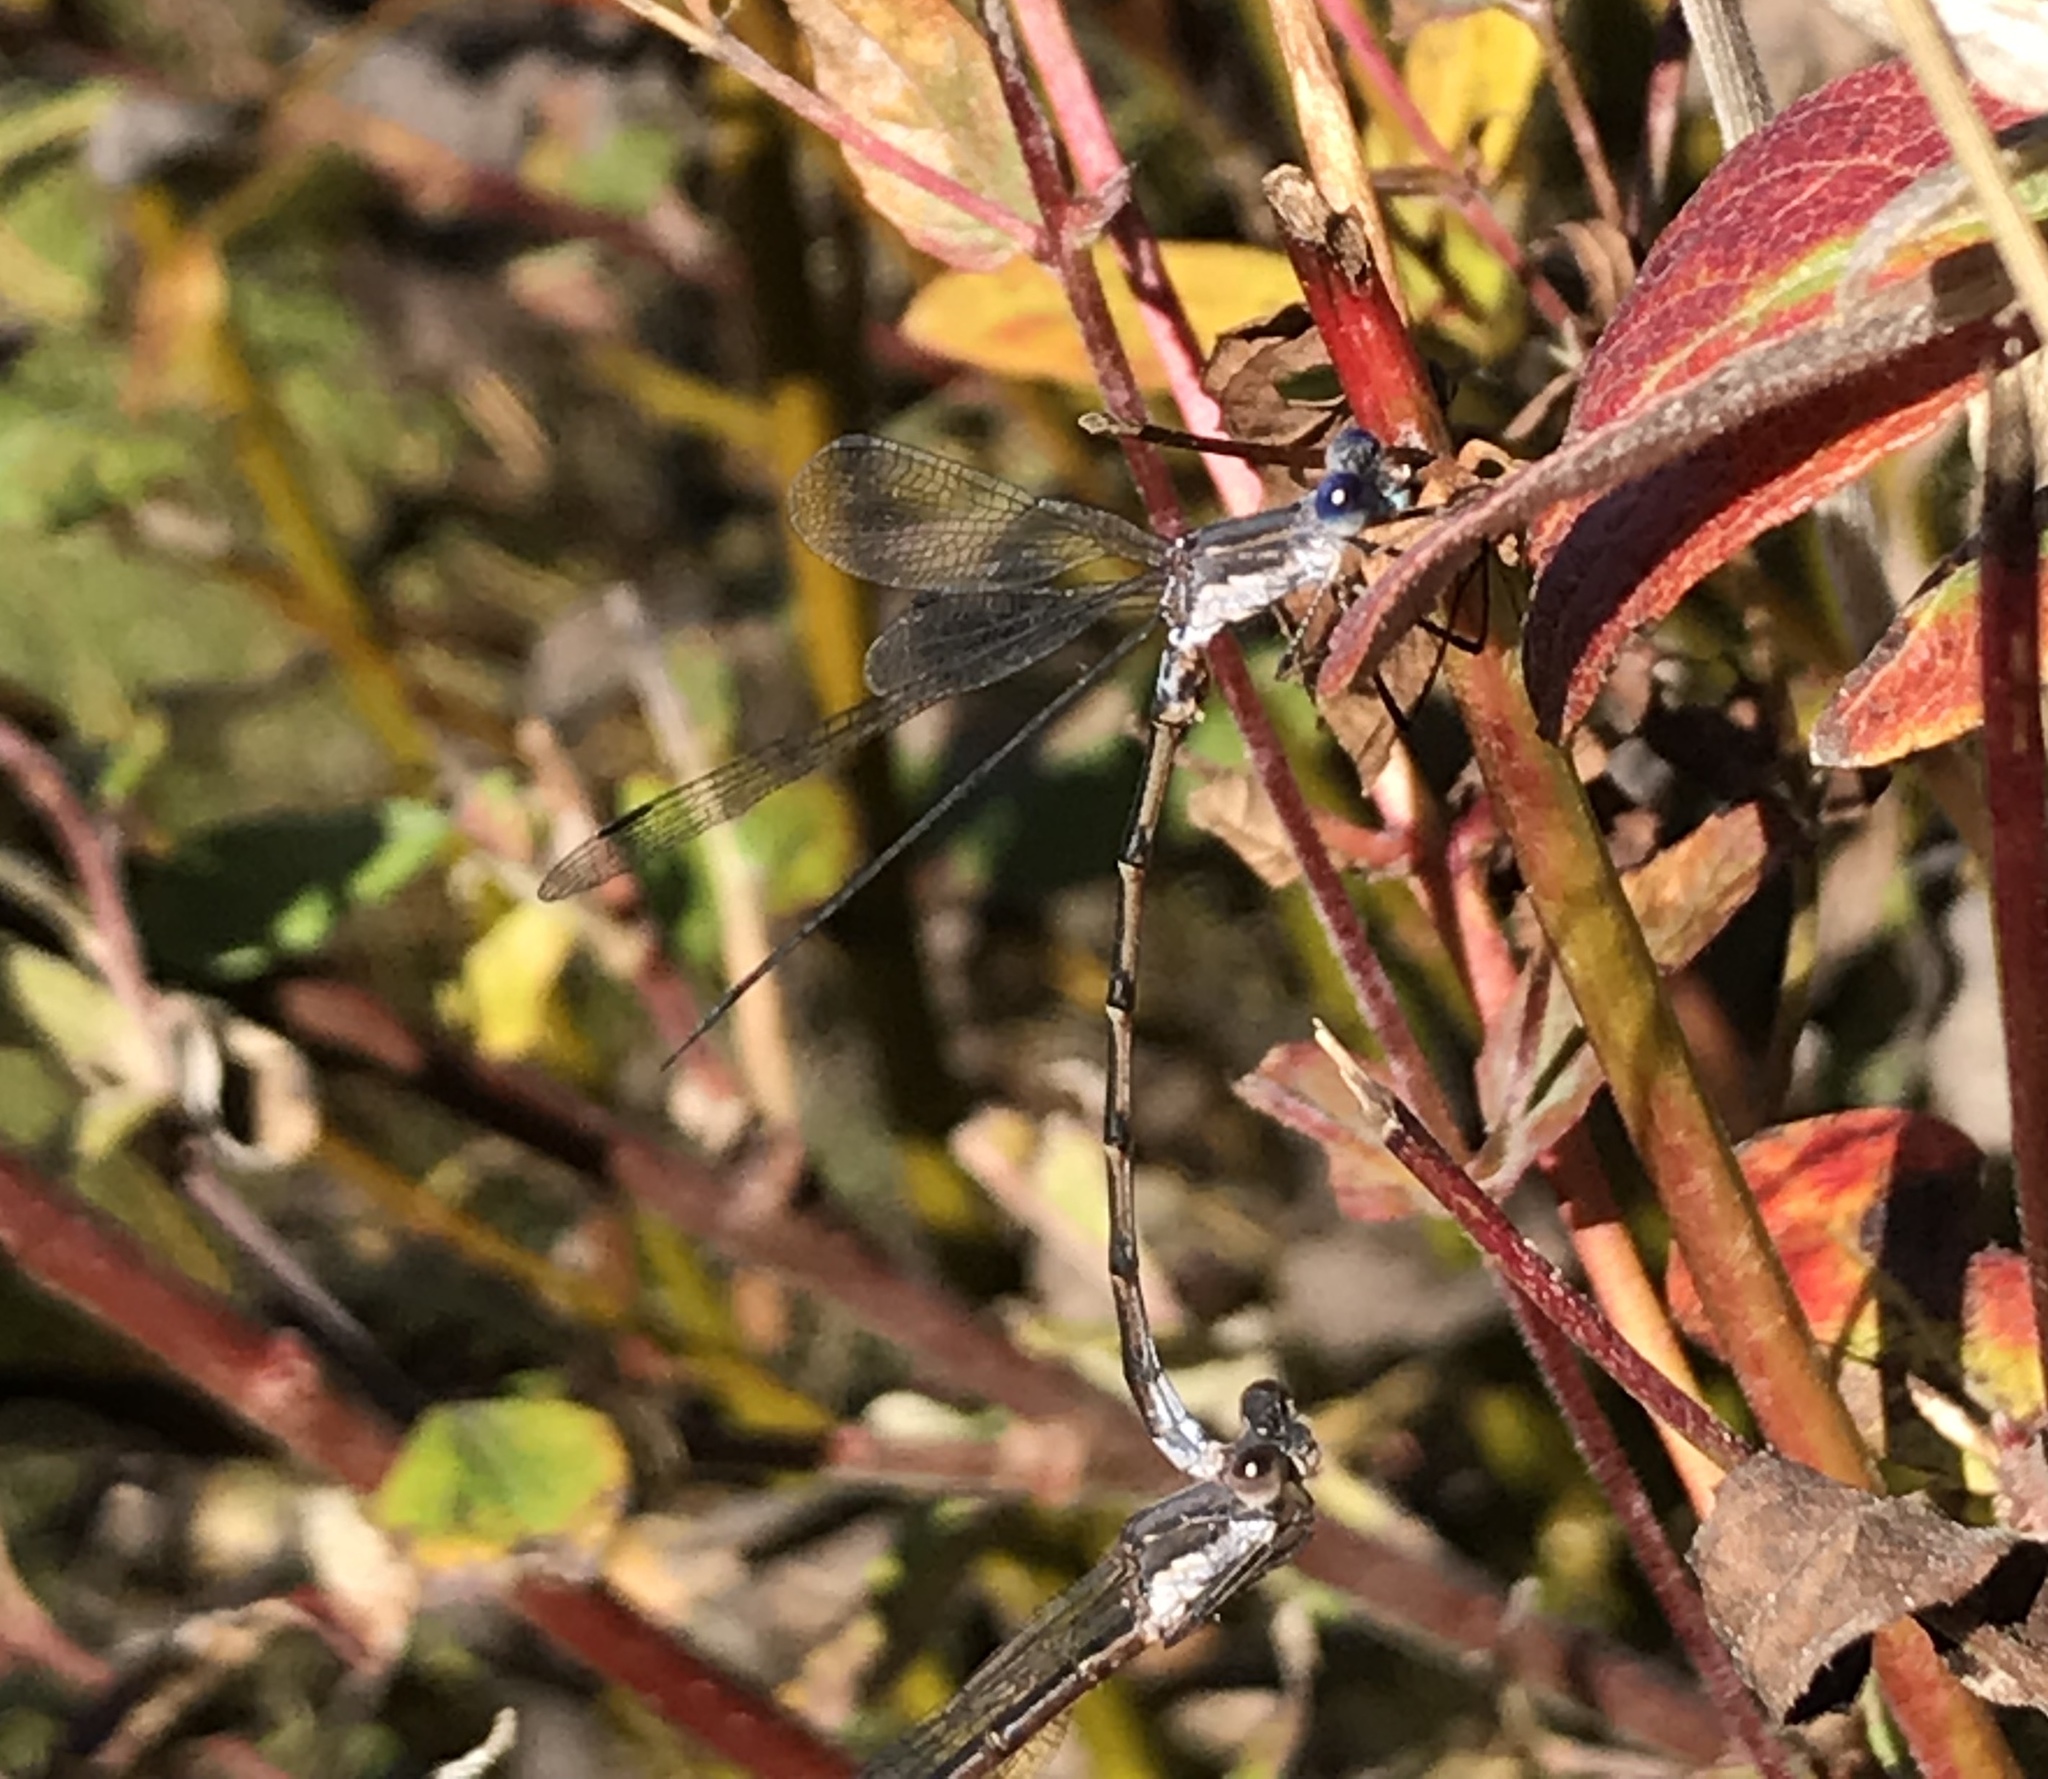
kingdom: Animalia
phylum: Arthropoda
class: Insecta
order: Odonata
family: Lestidae
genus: Lestes
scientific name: Lestes congener
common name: Spotted spreadwing
